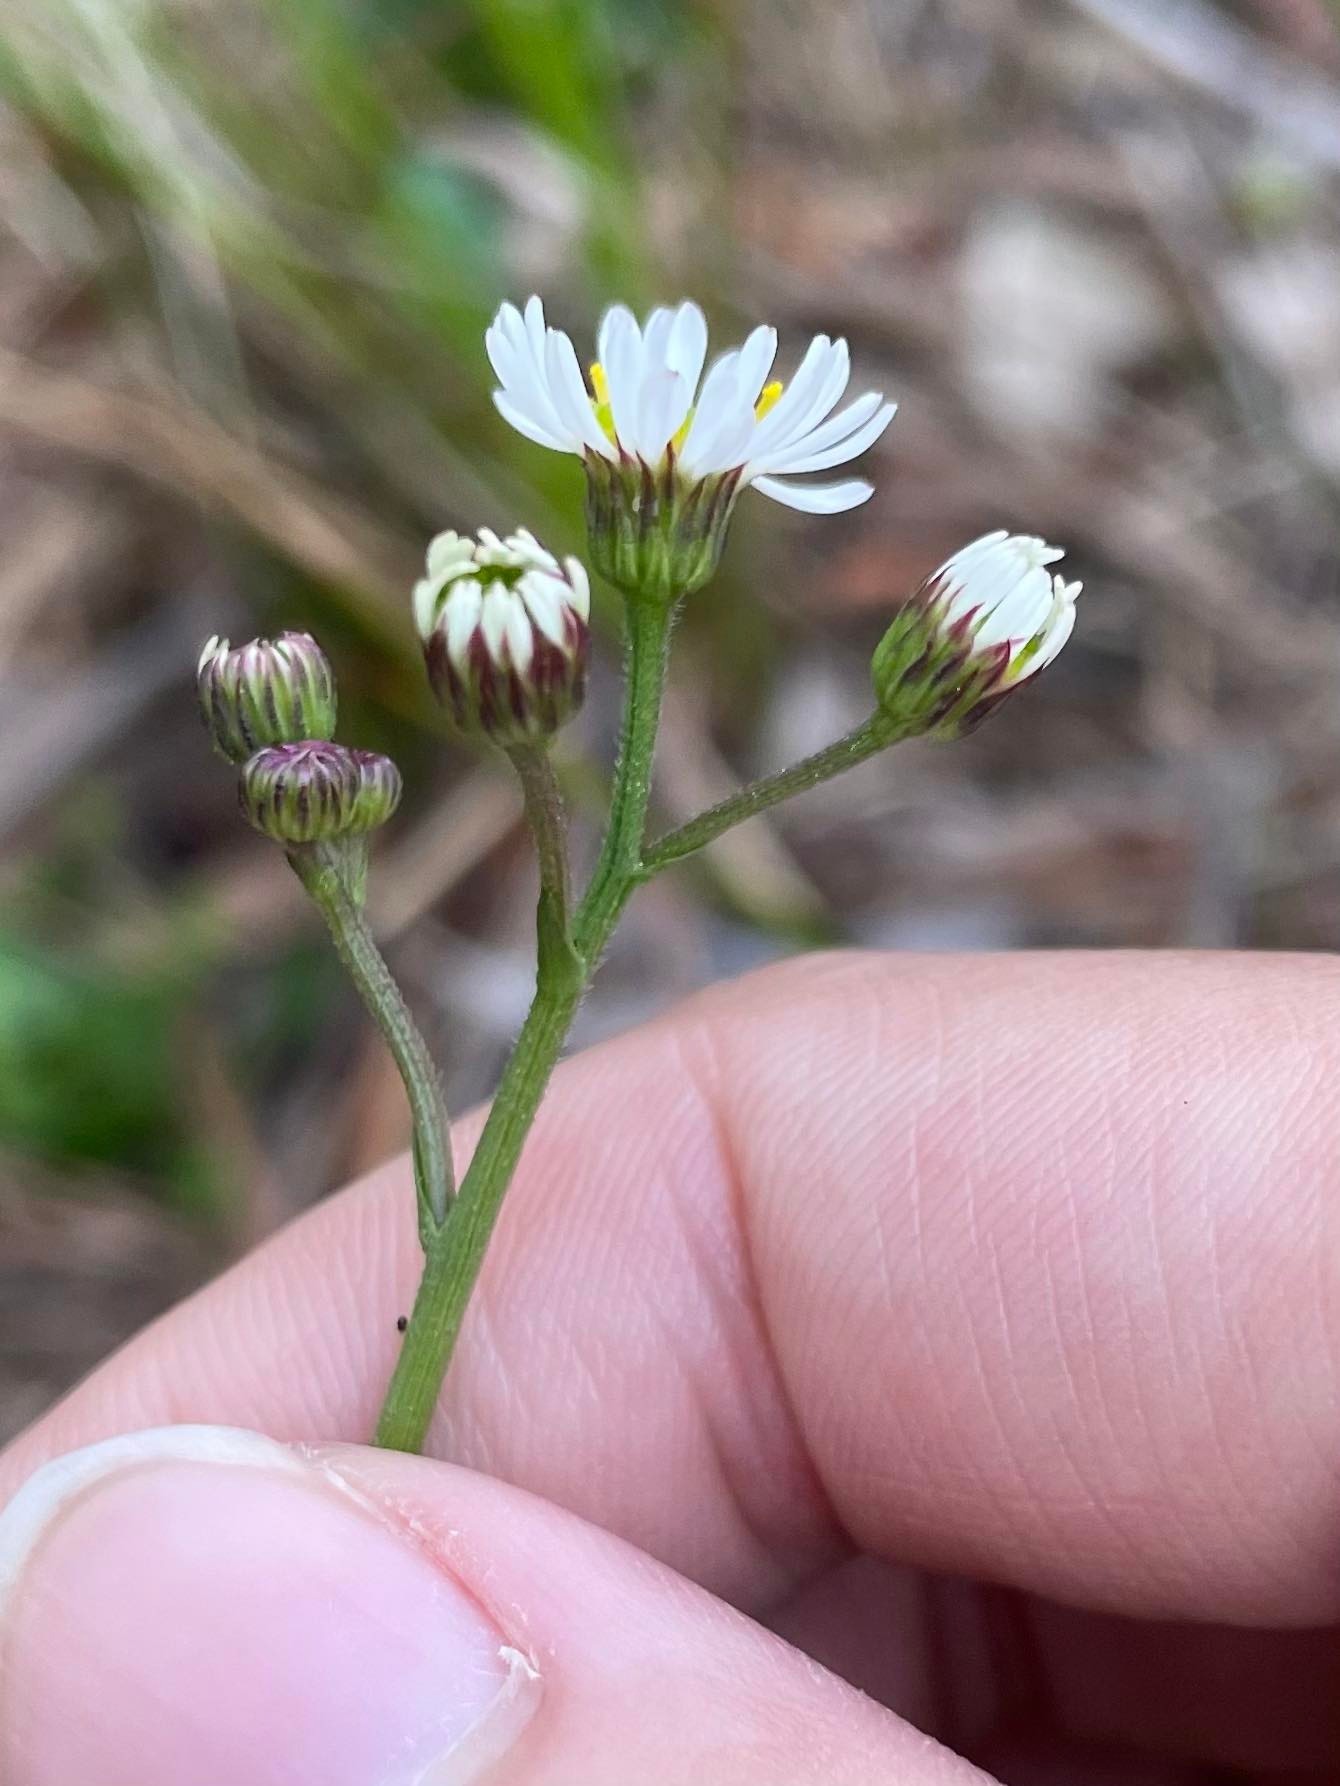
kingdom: Plantae
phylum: Tracheophyta
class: Magnoliopsida
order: Asterales
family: Asteraceae
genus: Erigeron
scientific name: Erigeron vernus
